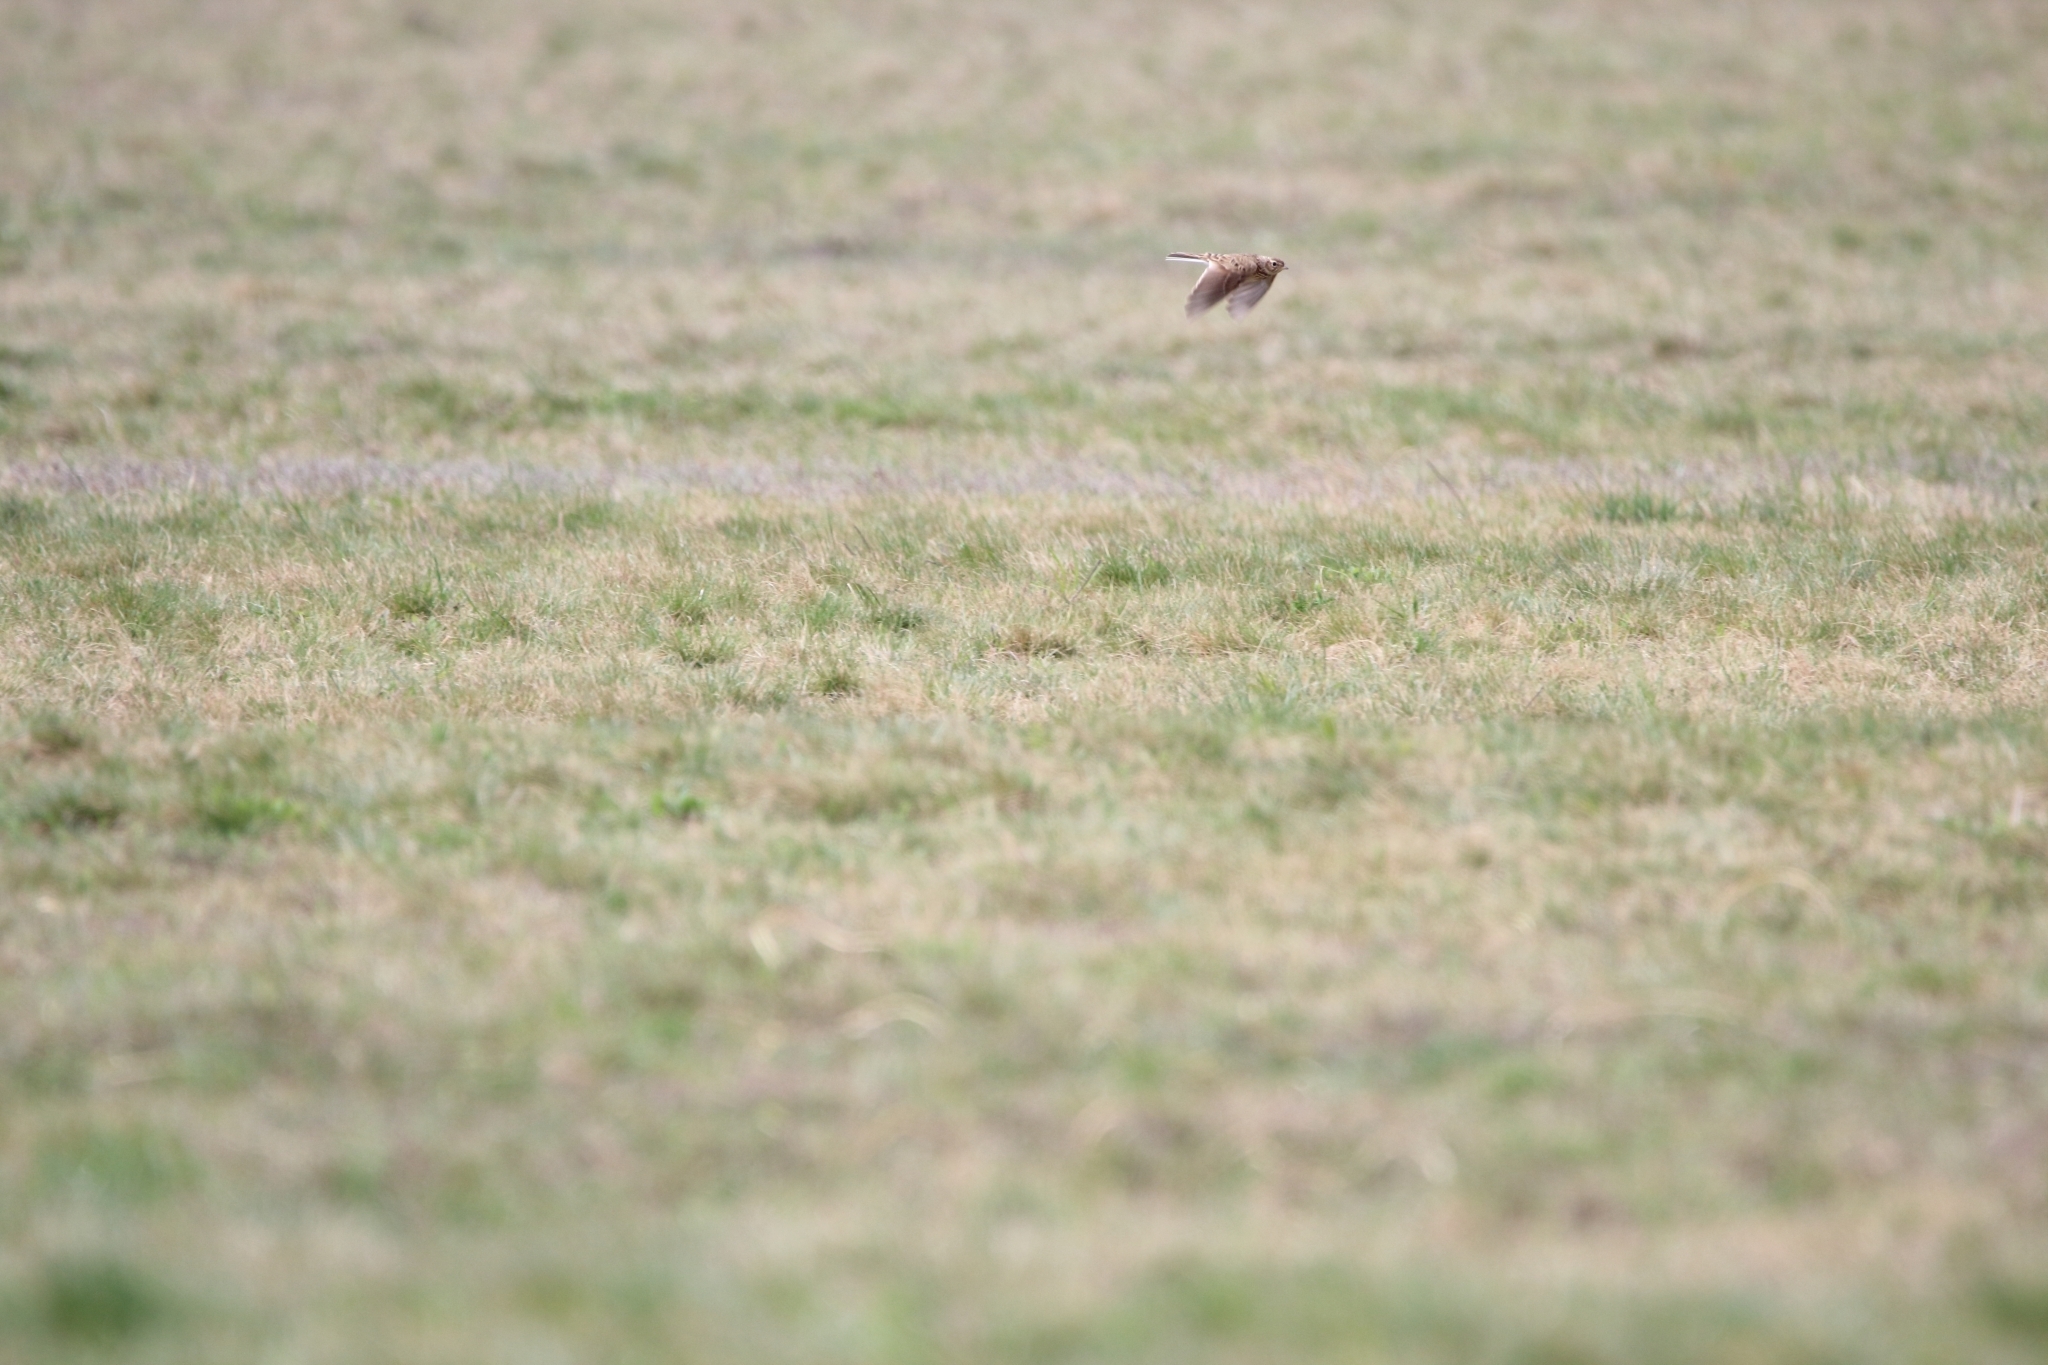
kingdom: Animalia
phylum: Chordata
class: Aves
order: Passeriformes
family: Alaudidae
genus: Alauda
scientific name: Alauda arvensis
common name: Eurasian skylark
